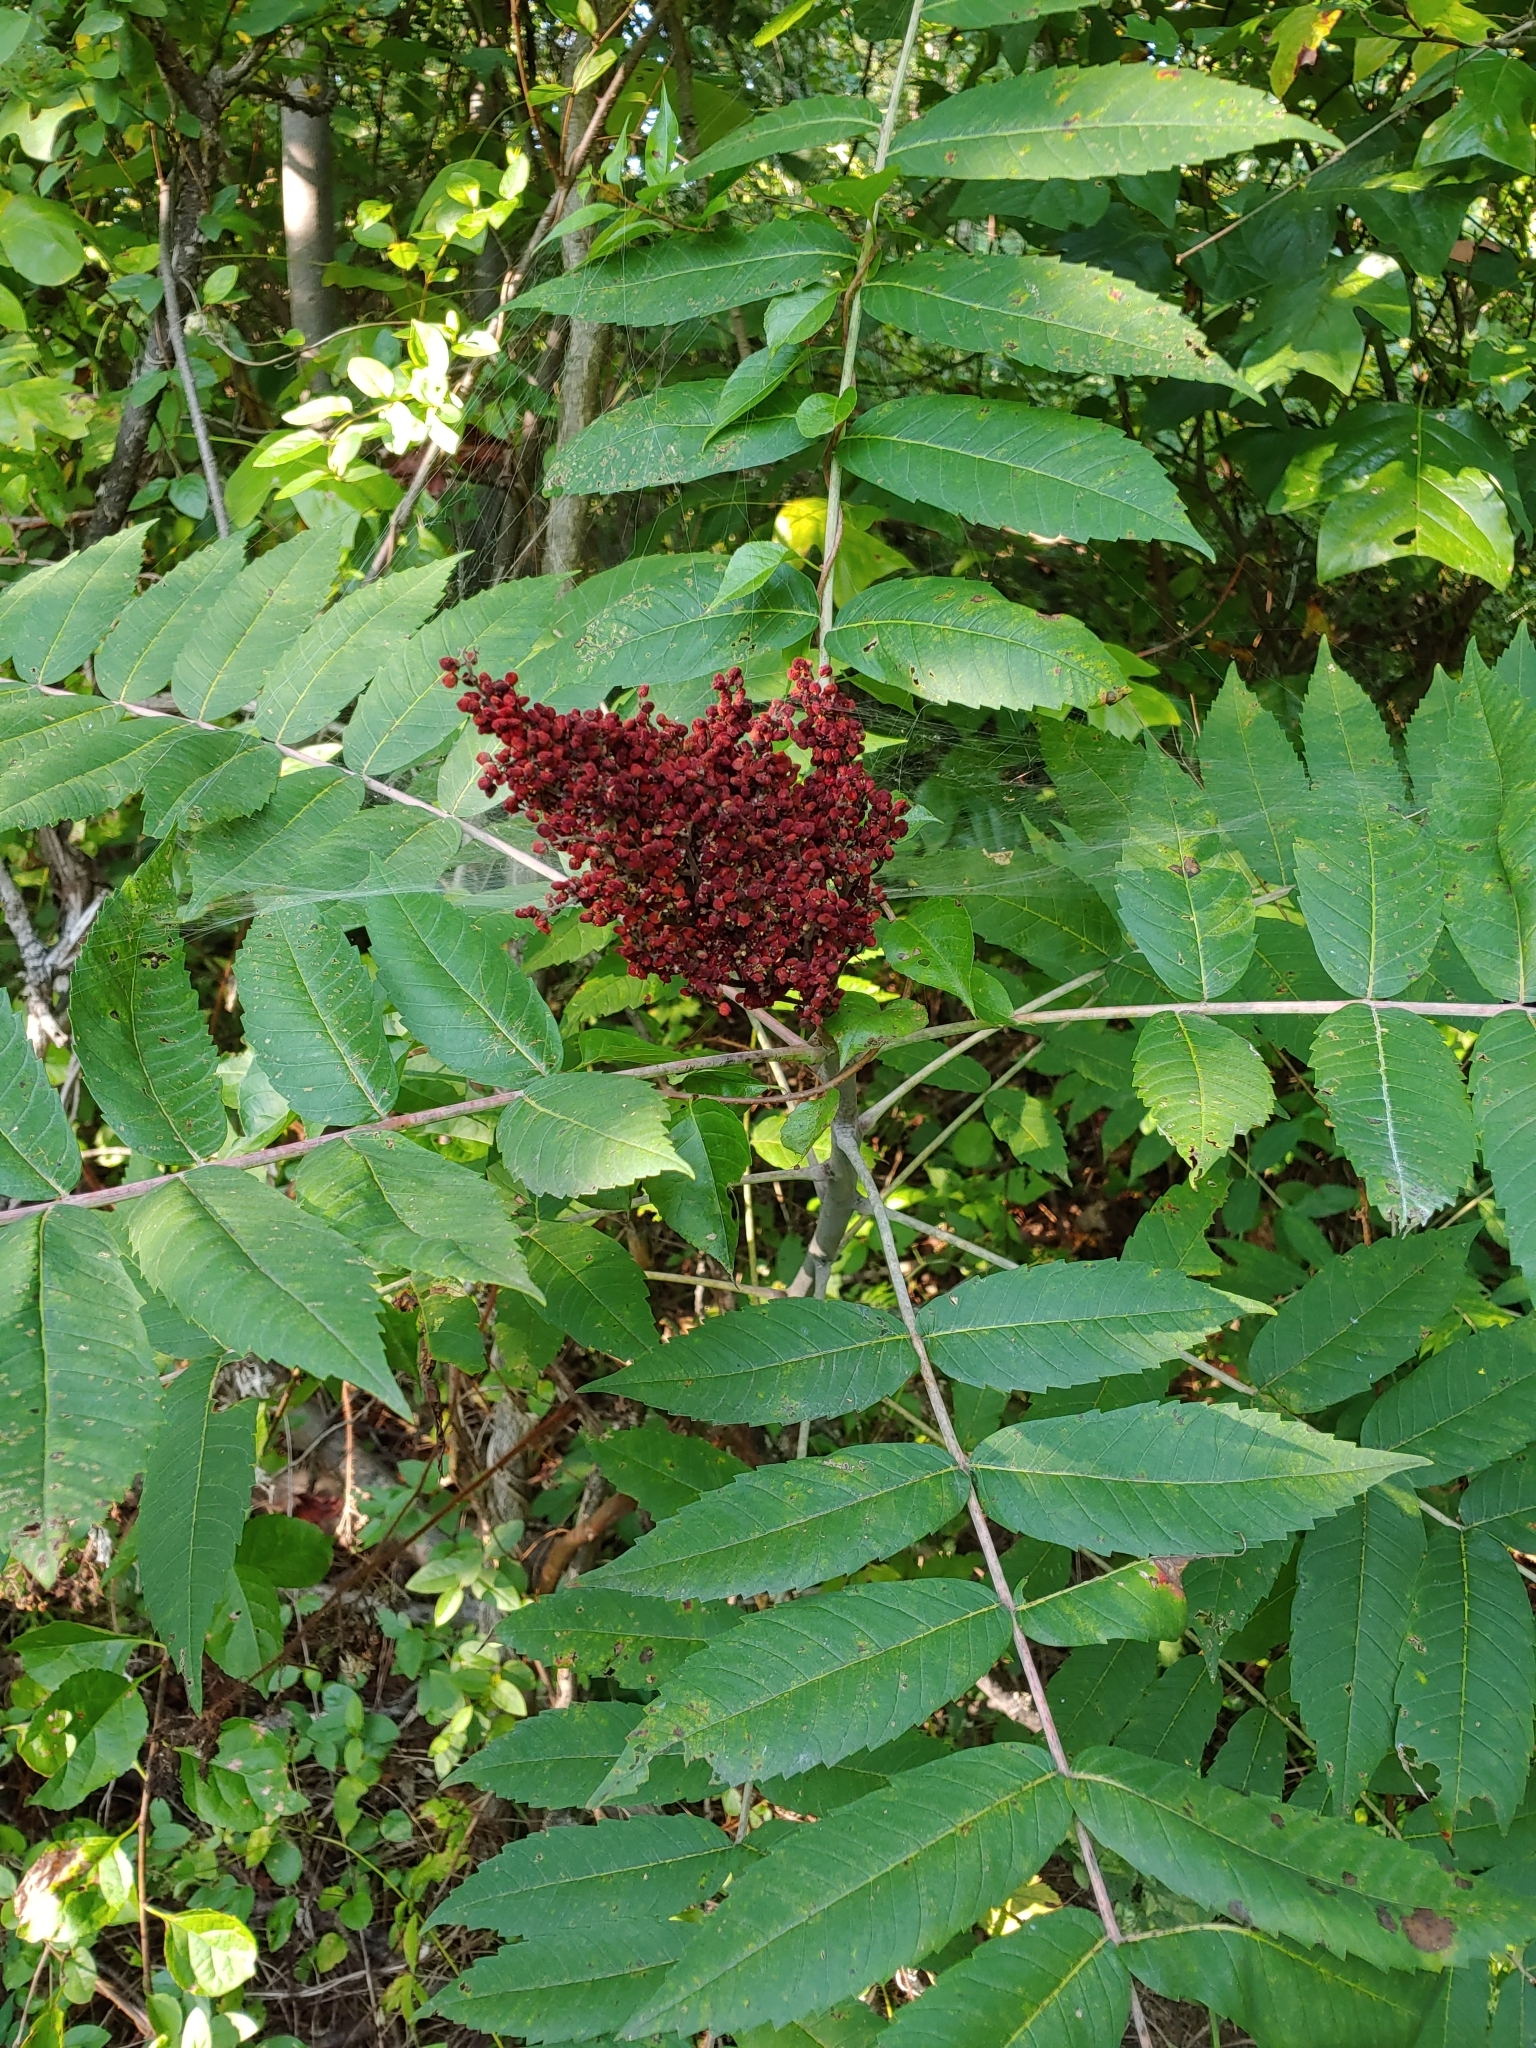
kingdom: Plantae
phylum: Tracheophyta
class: Magnoliopsida
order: Sapindales
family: Anacardiaceae
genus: Rhus
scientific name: Rhus glabra
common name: Scarlet sumac
